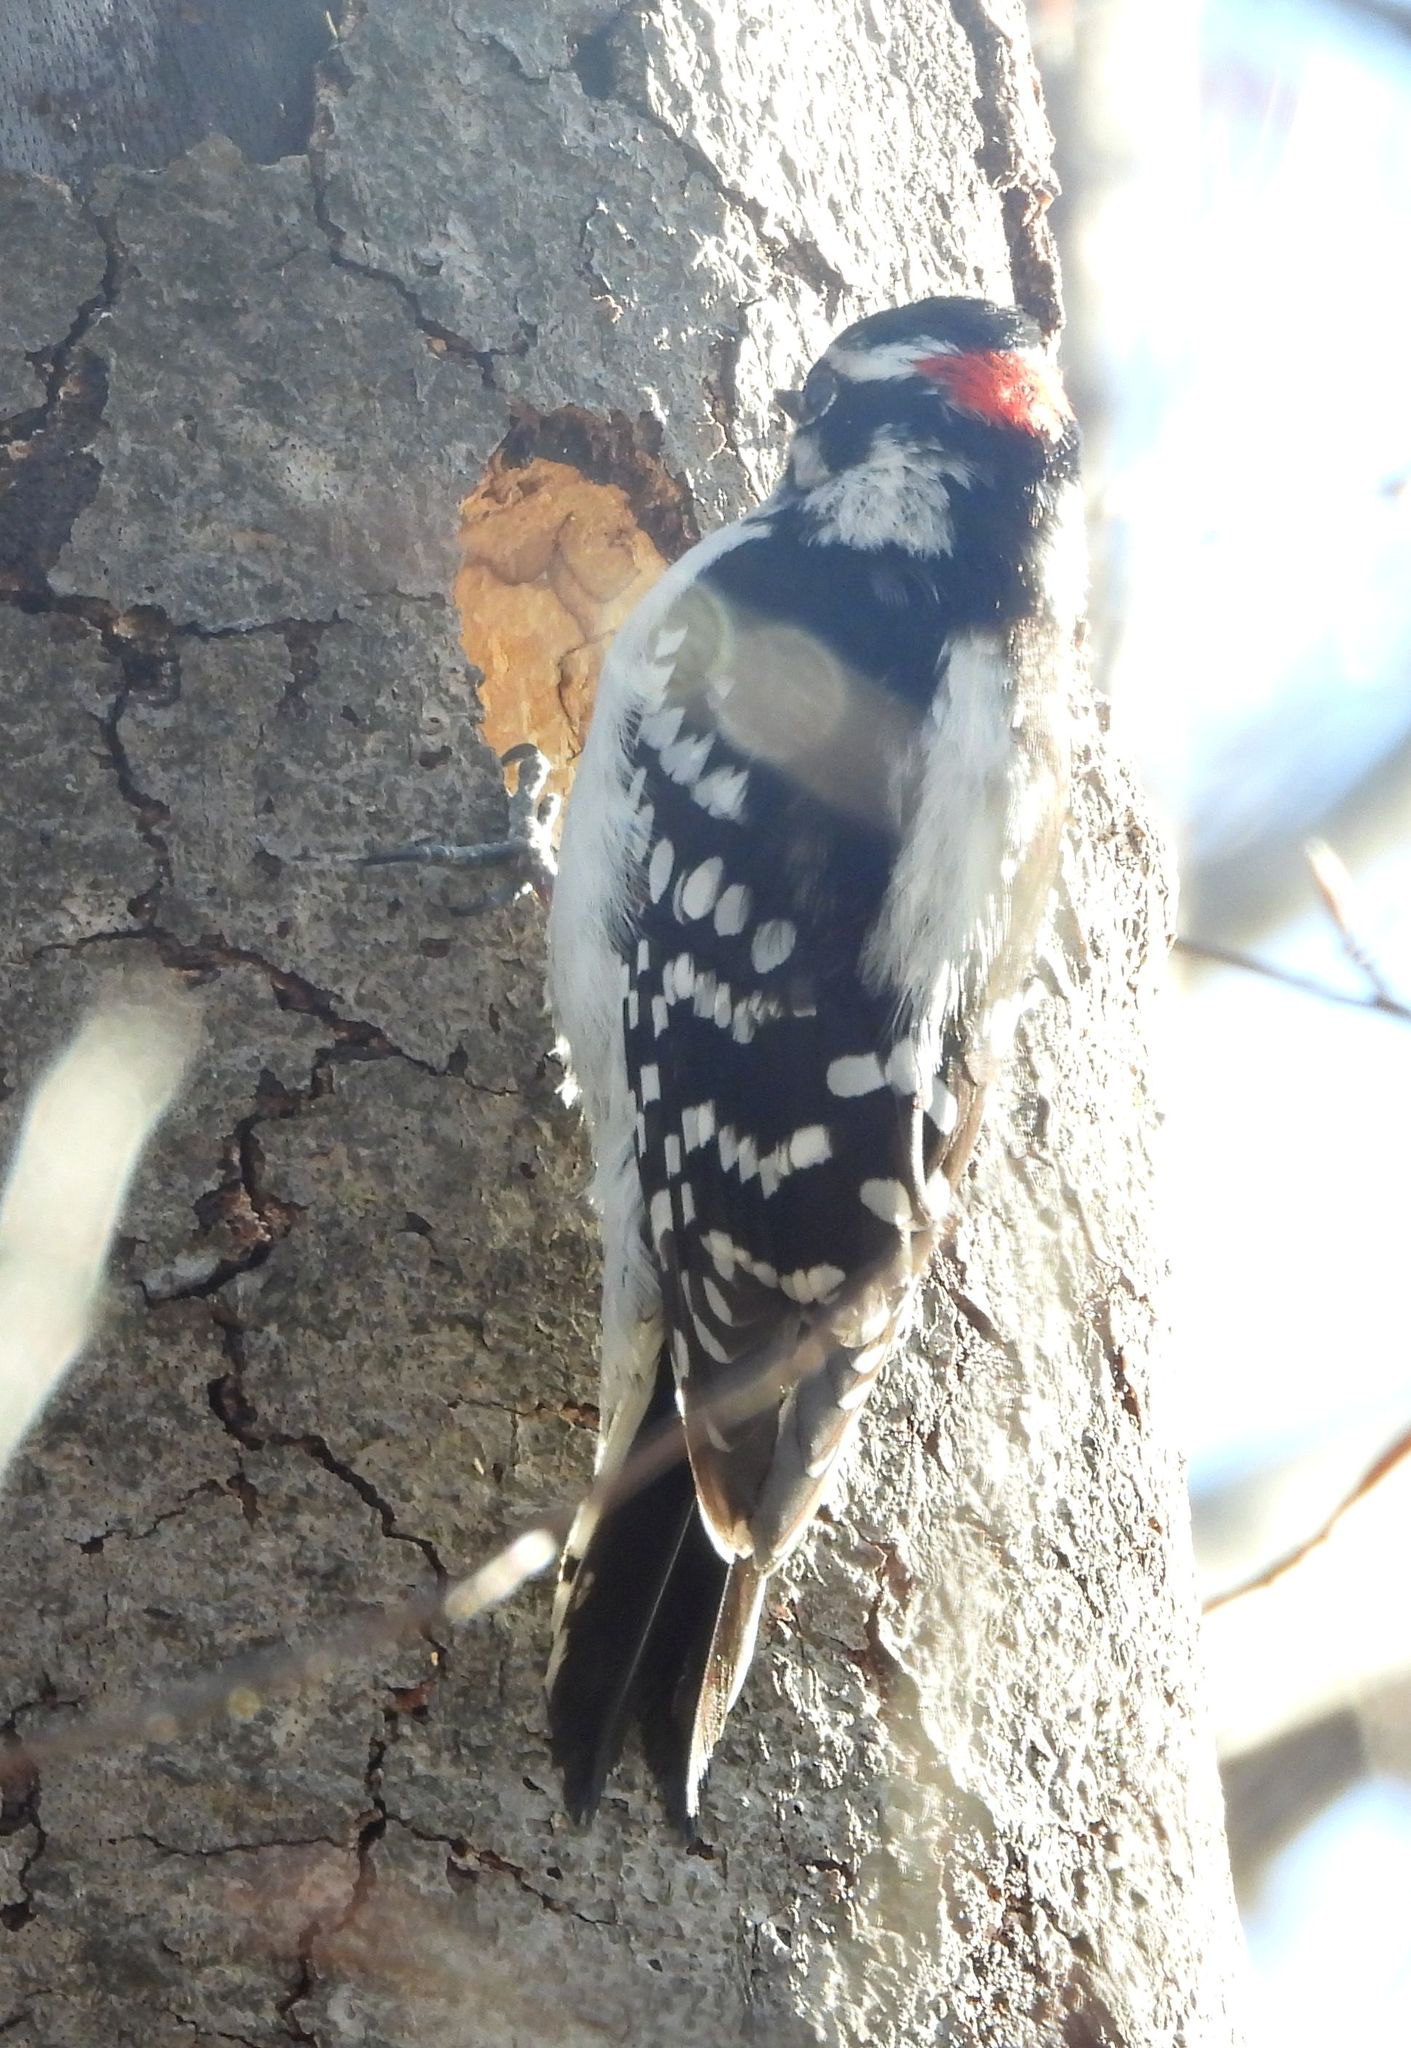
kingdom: Animalia
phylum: Chordata
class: Aves
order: Piciformes
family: Picidae
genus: Dryobates
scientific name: Dryobates pubescens
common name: Downy woodpecker
